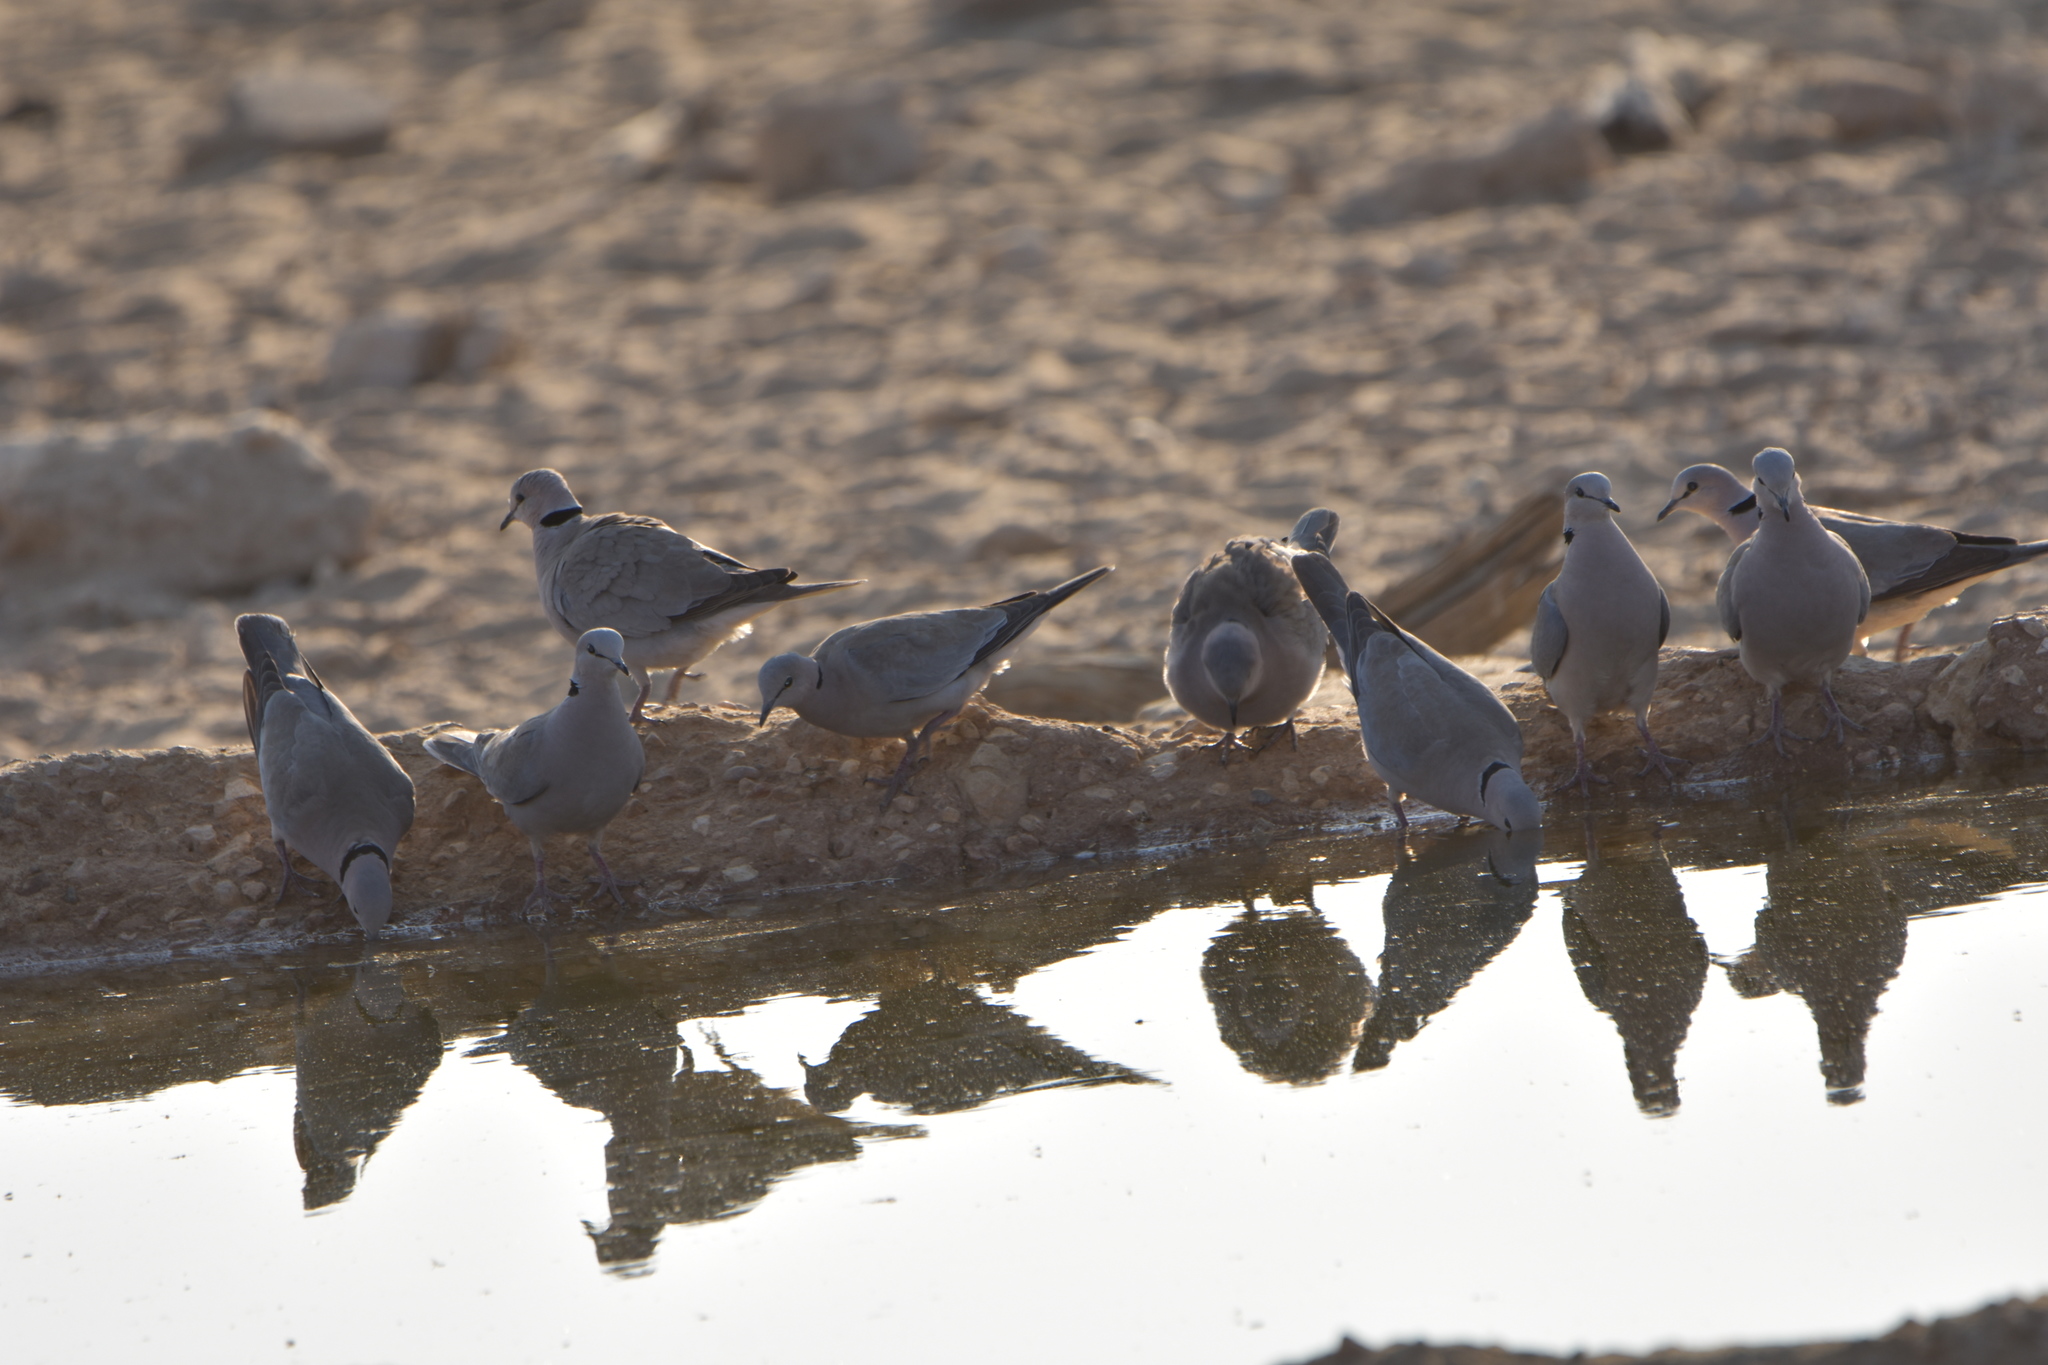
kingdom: Animalia
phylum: Chordata
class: Aves
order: Columbiformes
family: Columbidae
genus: Streptopelia
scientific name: Streptopelia capicola
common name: Ring-necked dove
